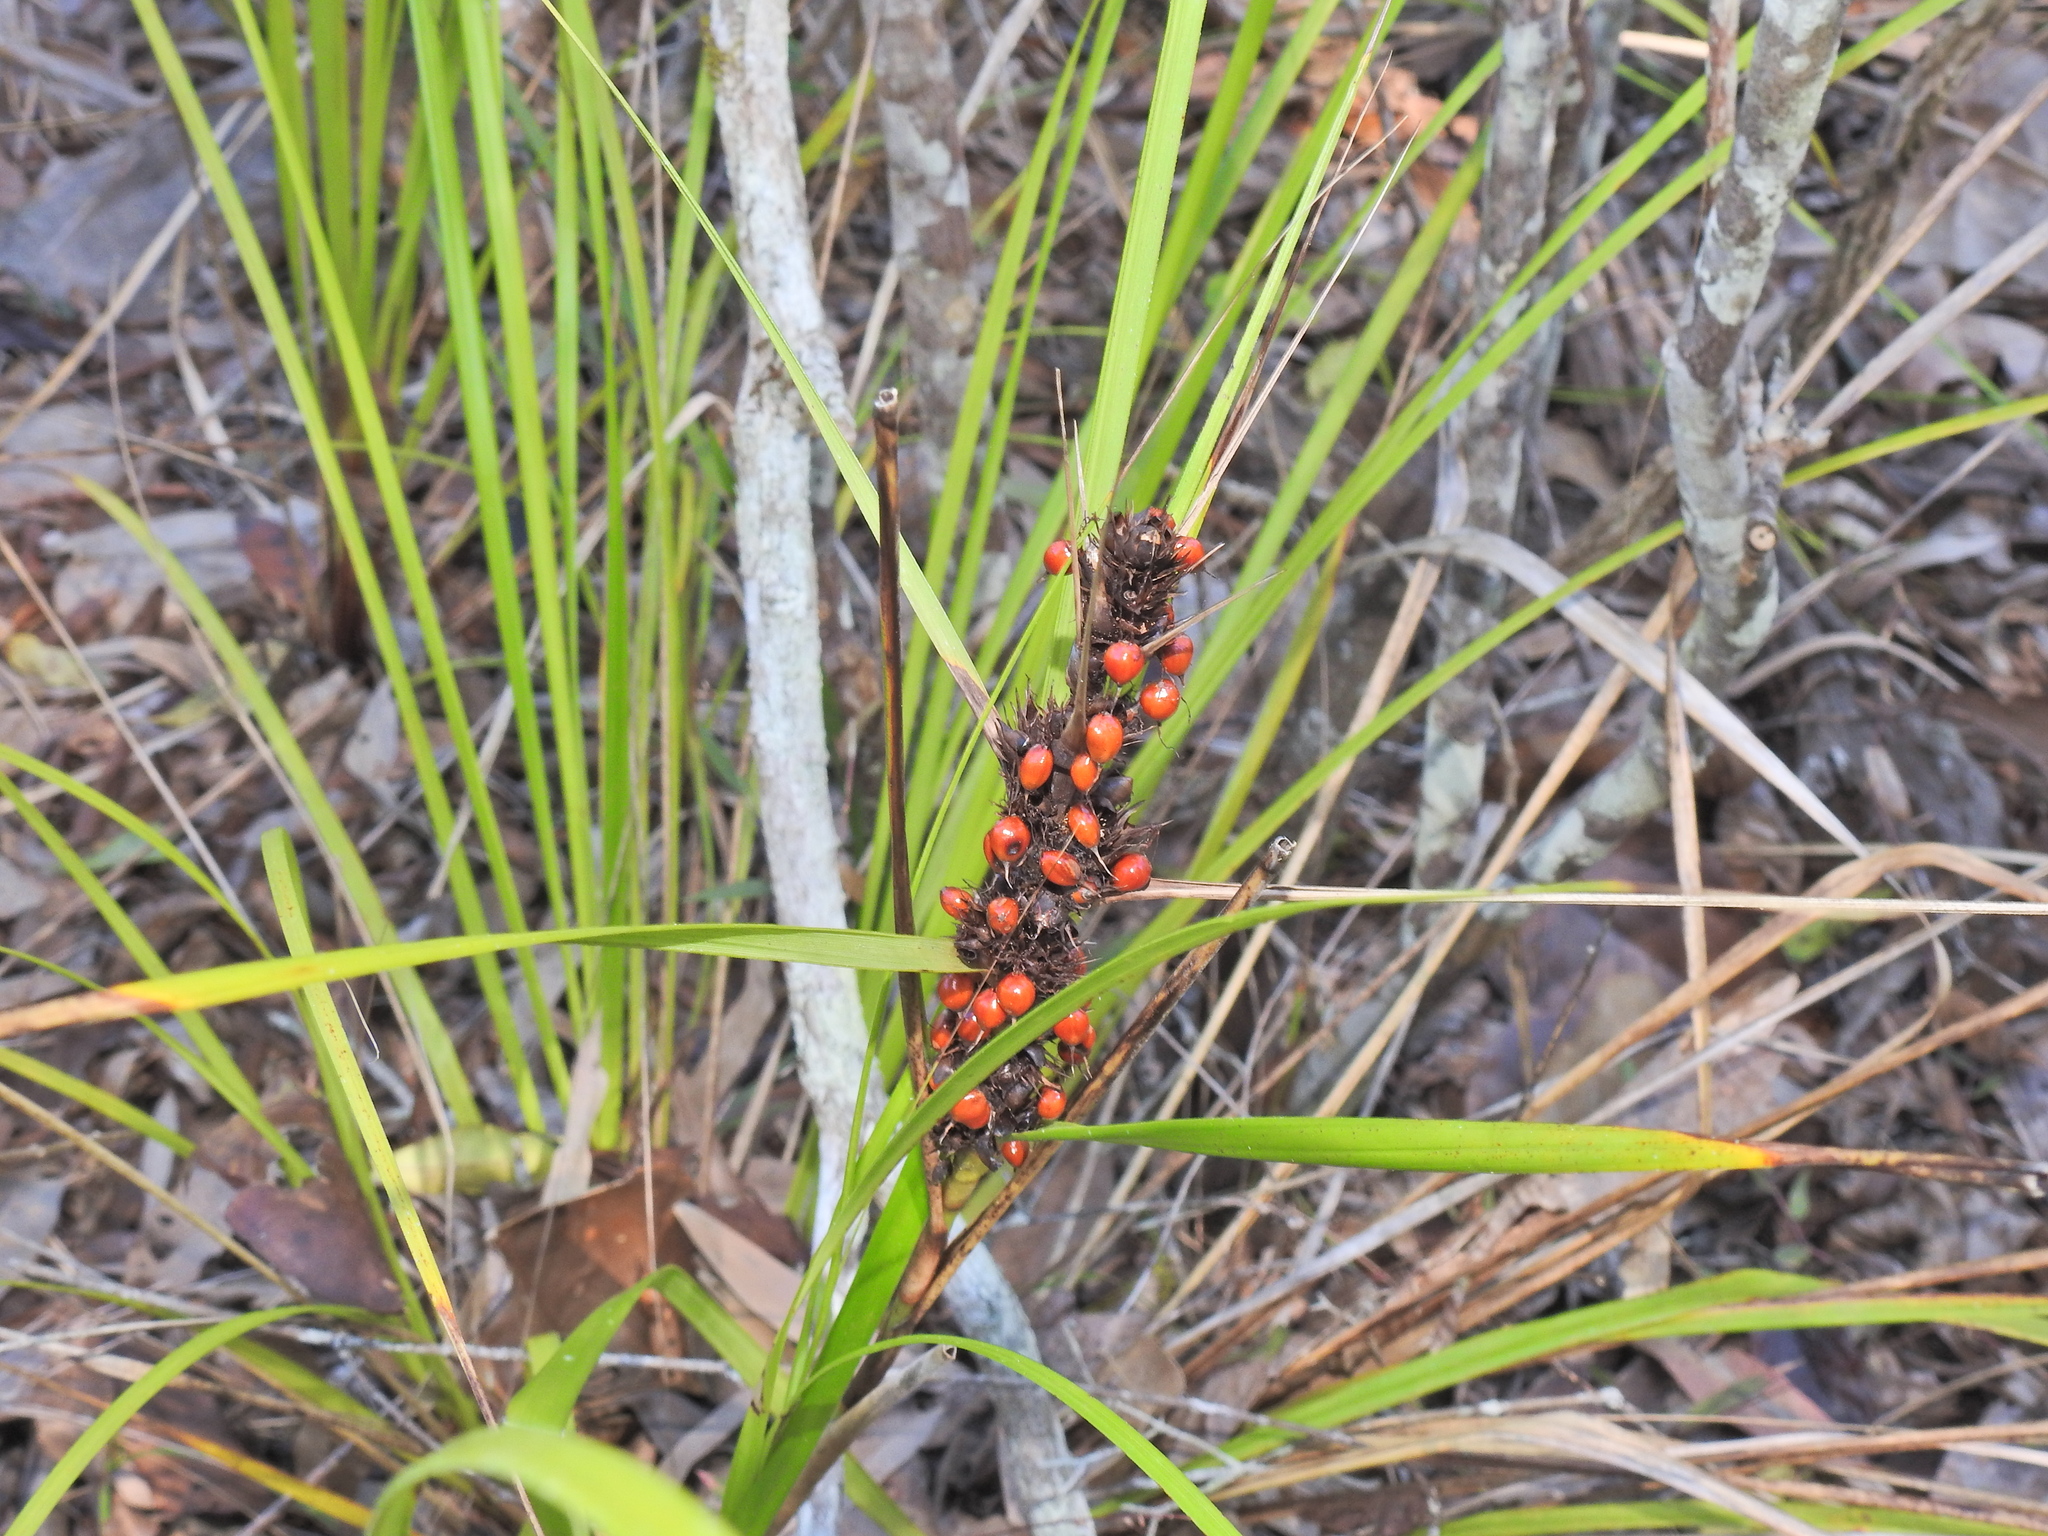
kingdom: Plantae
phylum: Tracheophyta
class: Liliopsida
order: Poales
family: Cyperaceae
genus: Gahnia
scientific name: Gahnia aspera
